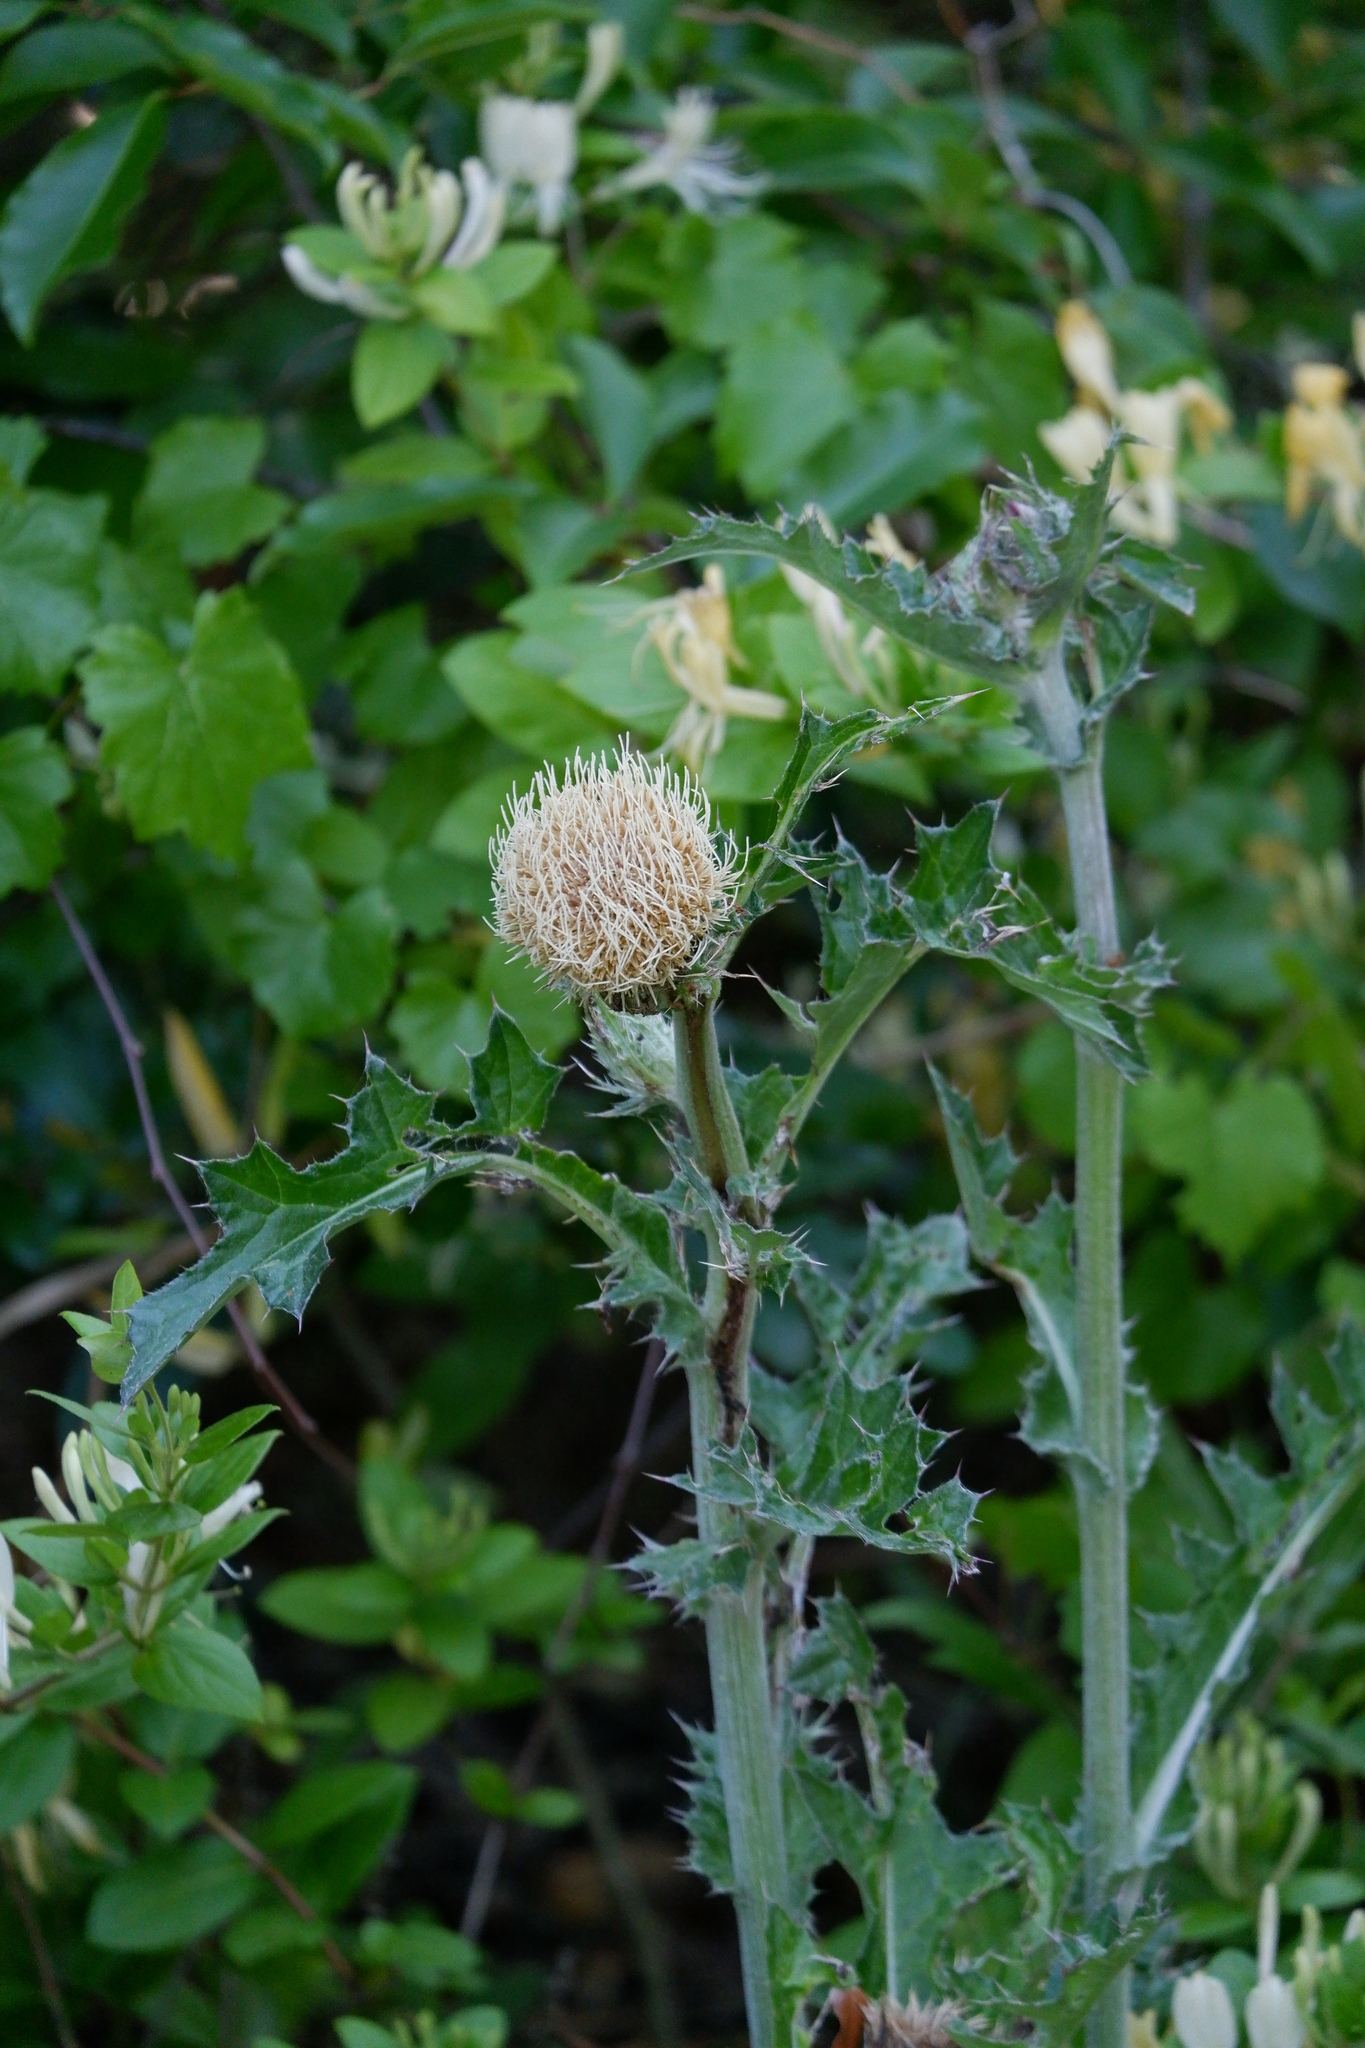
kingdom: Plantae
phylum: Tracheophyta
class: Magnoliopsida
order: Asterales
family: Asteraceae
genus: Cirsium
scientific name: Cirsium horridulum
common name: Bristly thistle
